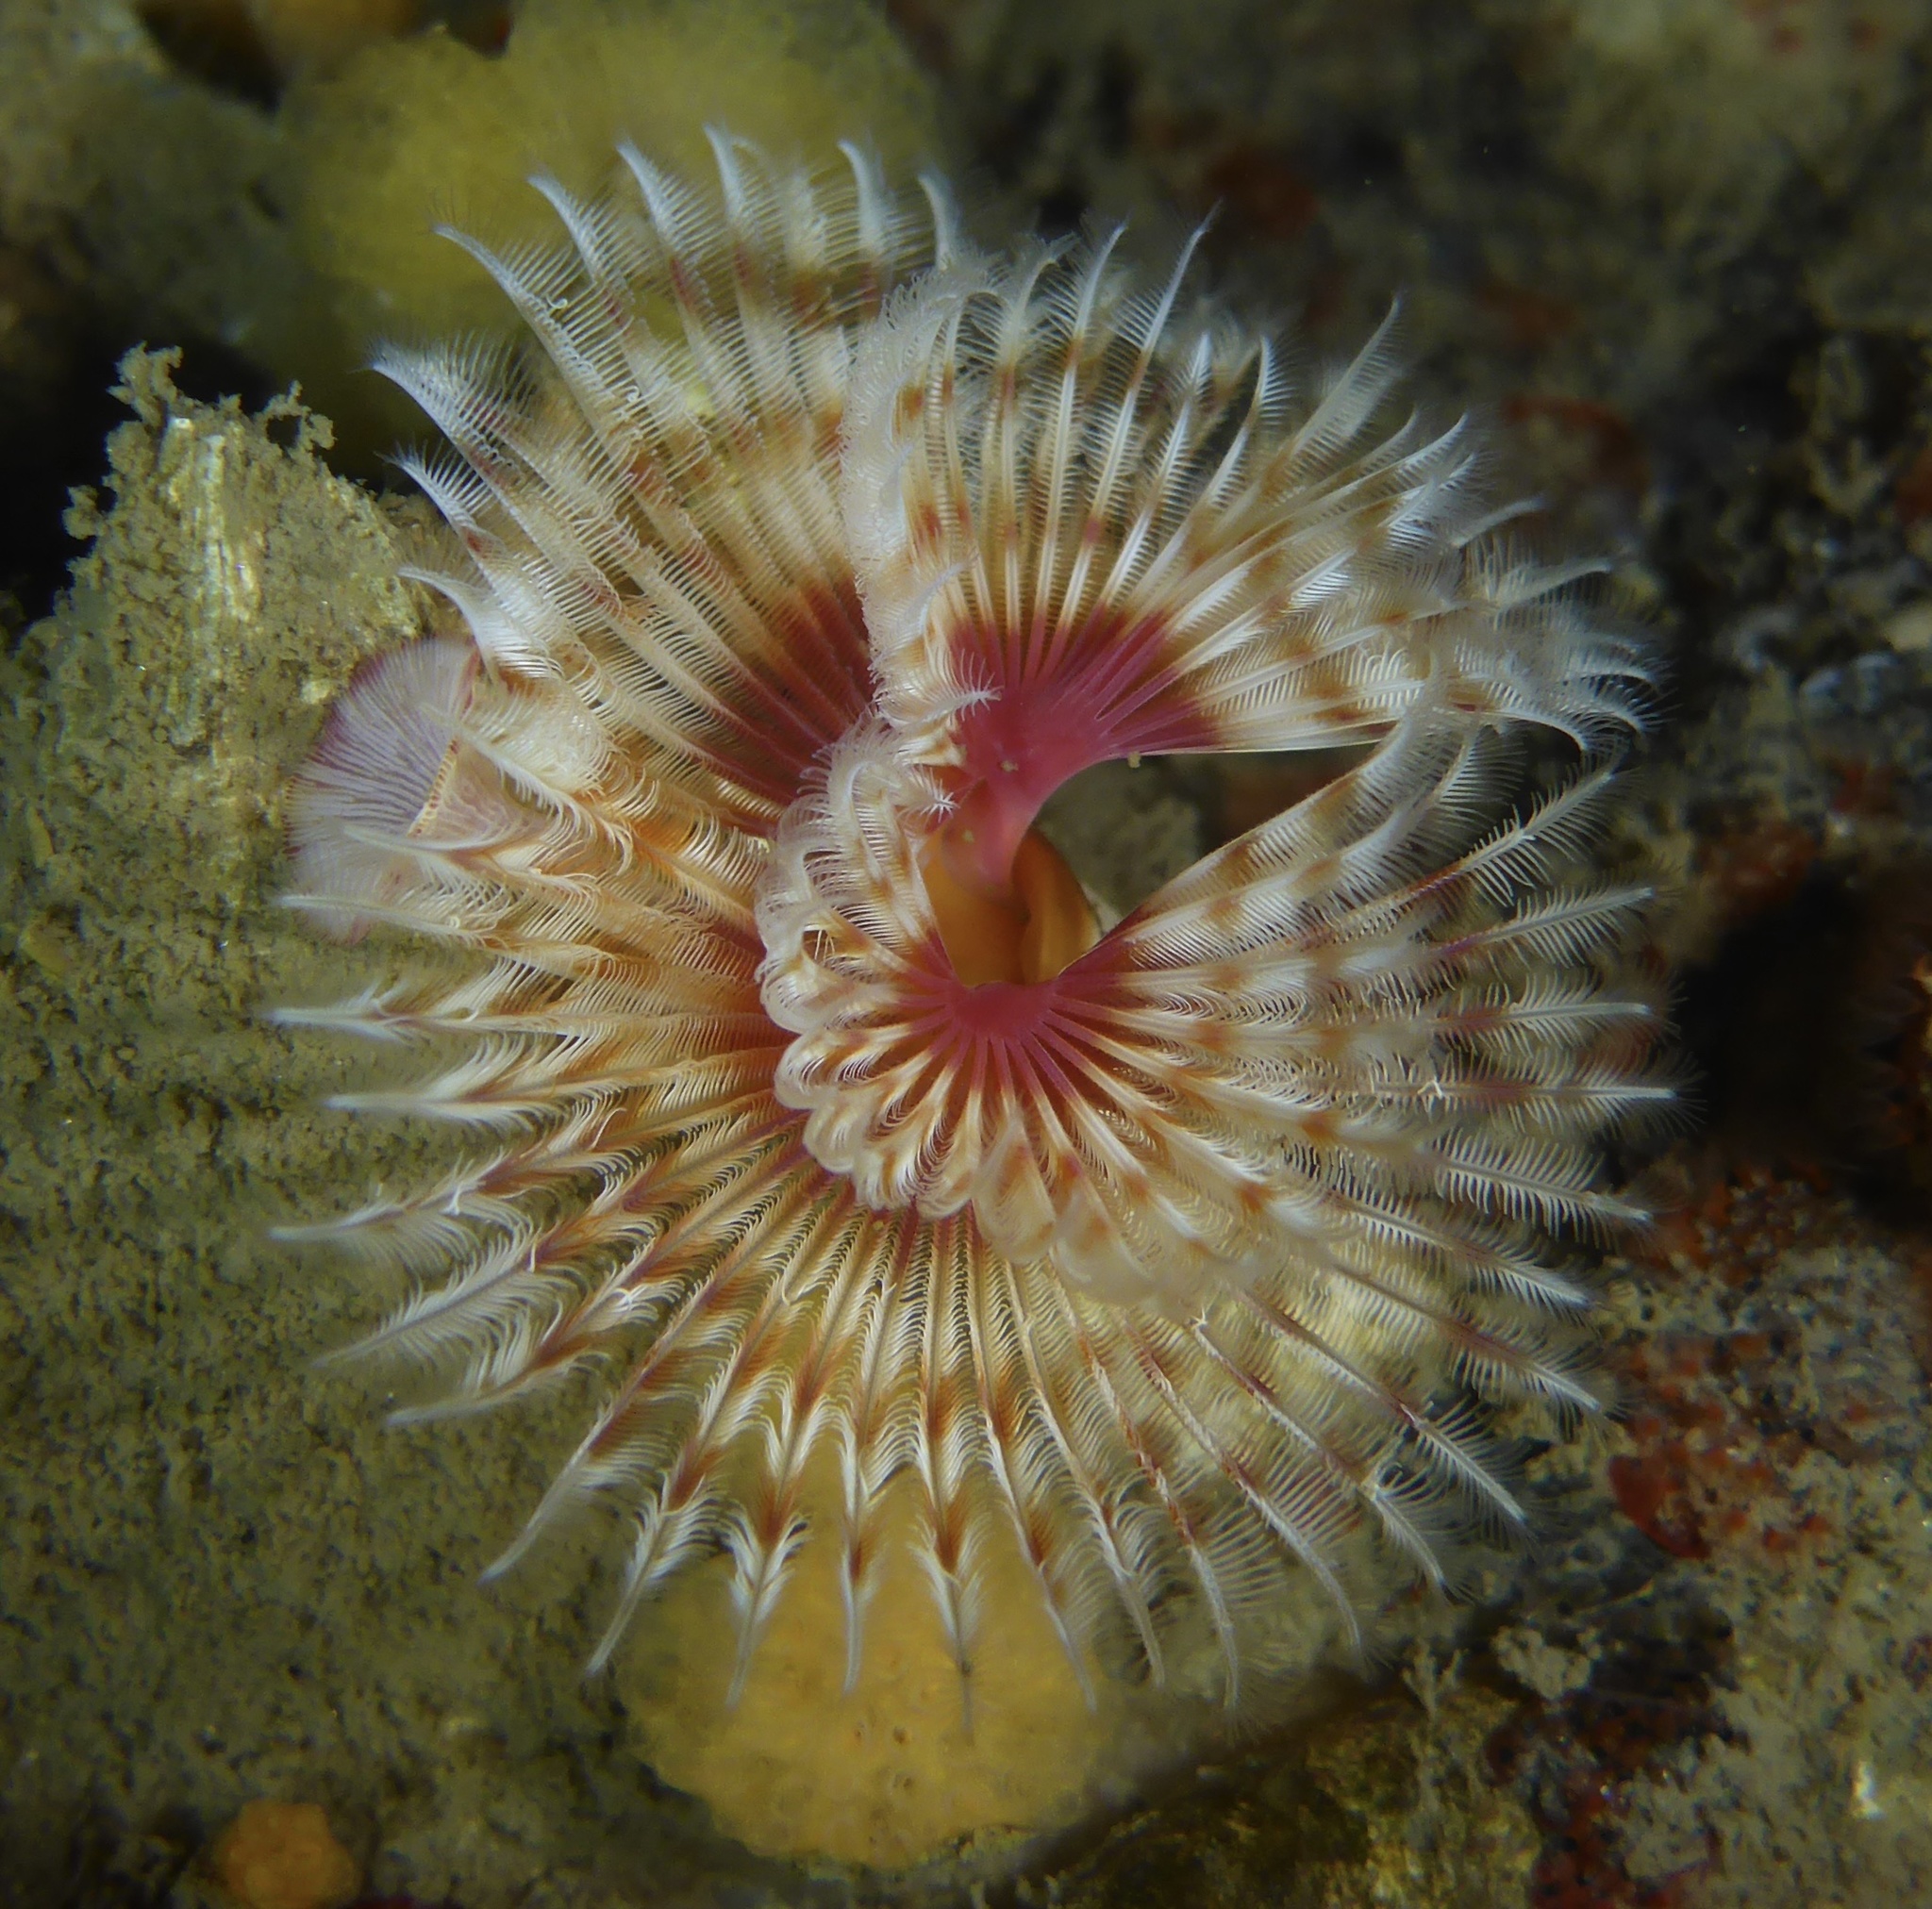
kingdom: Animalia
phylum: Annelida
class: Polychaeta
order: Sabellida
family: Serpulidae
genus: Serpula
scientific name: Serpula columbiana
